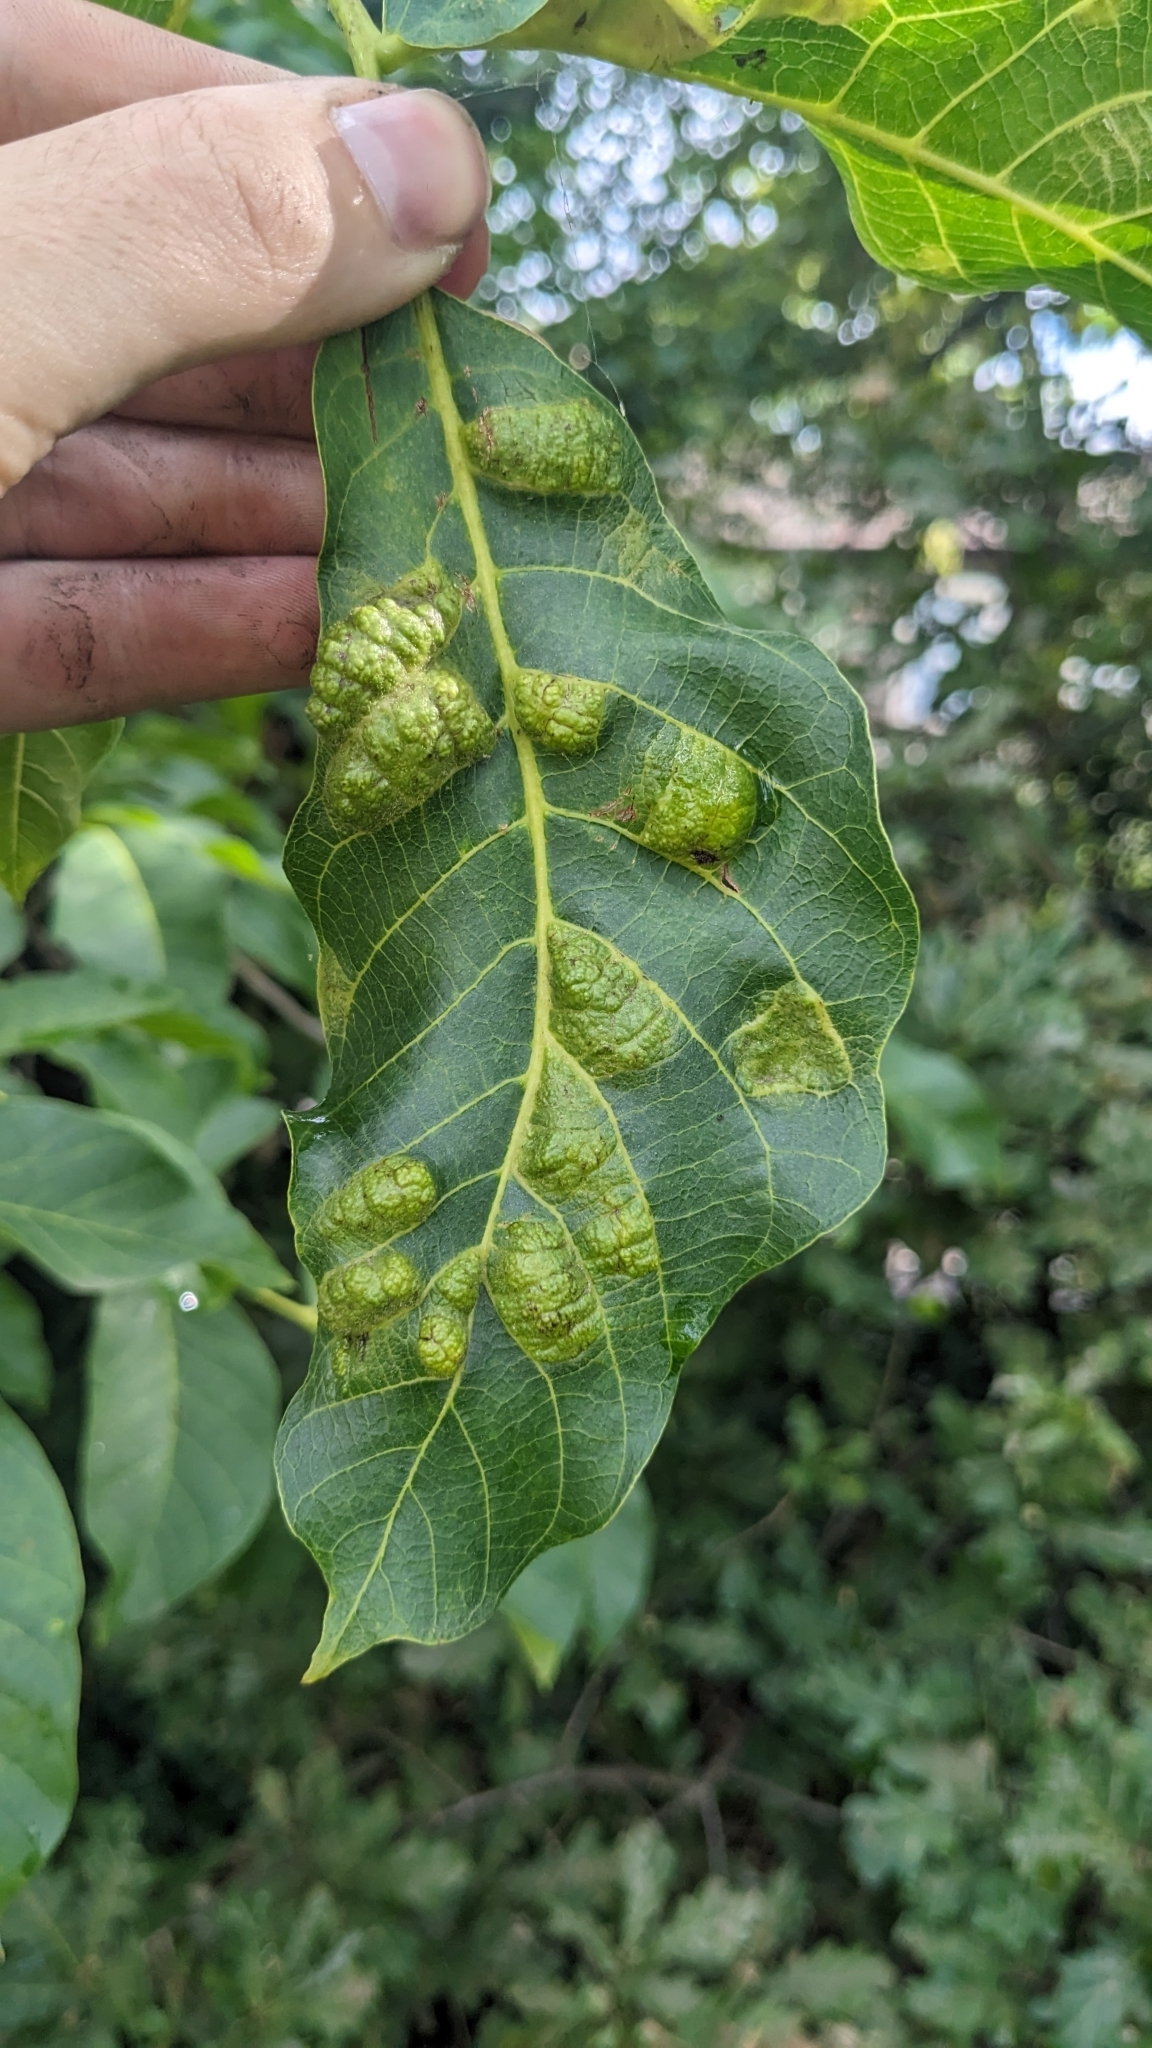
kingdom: Animalia
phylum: Arthropoda
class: Arachnida
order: Trombidiformes
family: Eriophyidae
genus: Aceria
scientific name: Aceria erinea
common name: Persian walnut erineum mite
